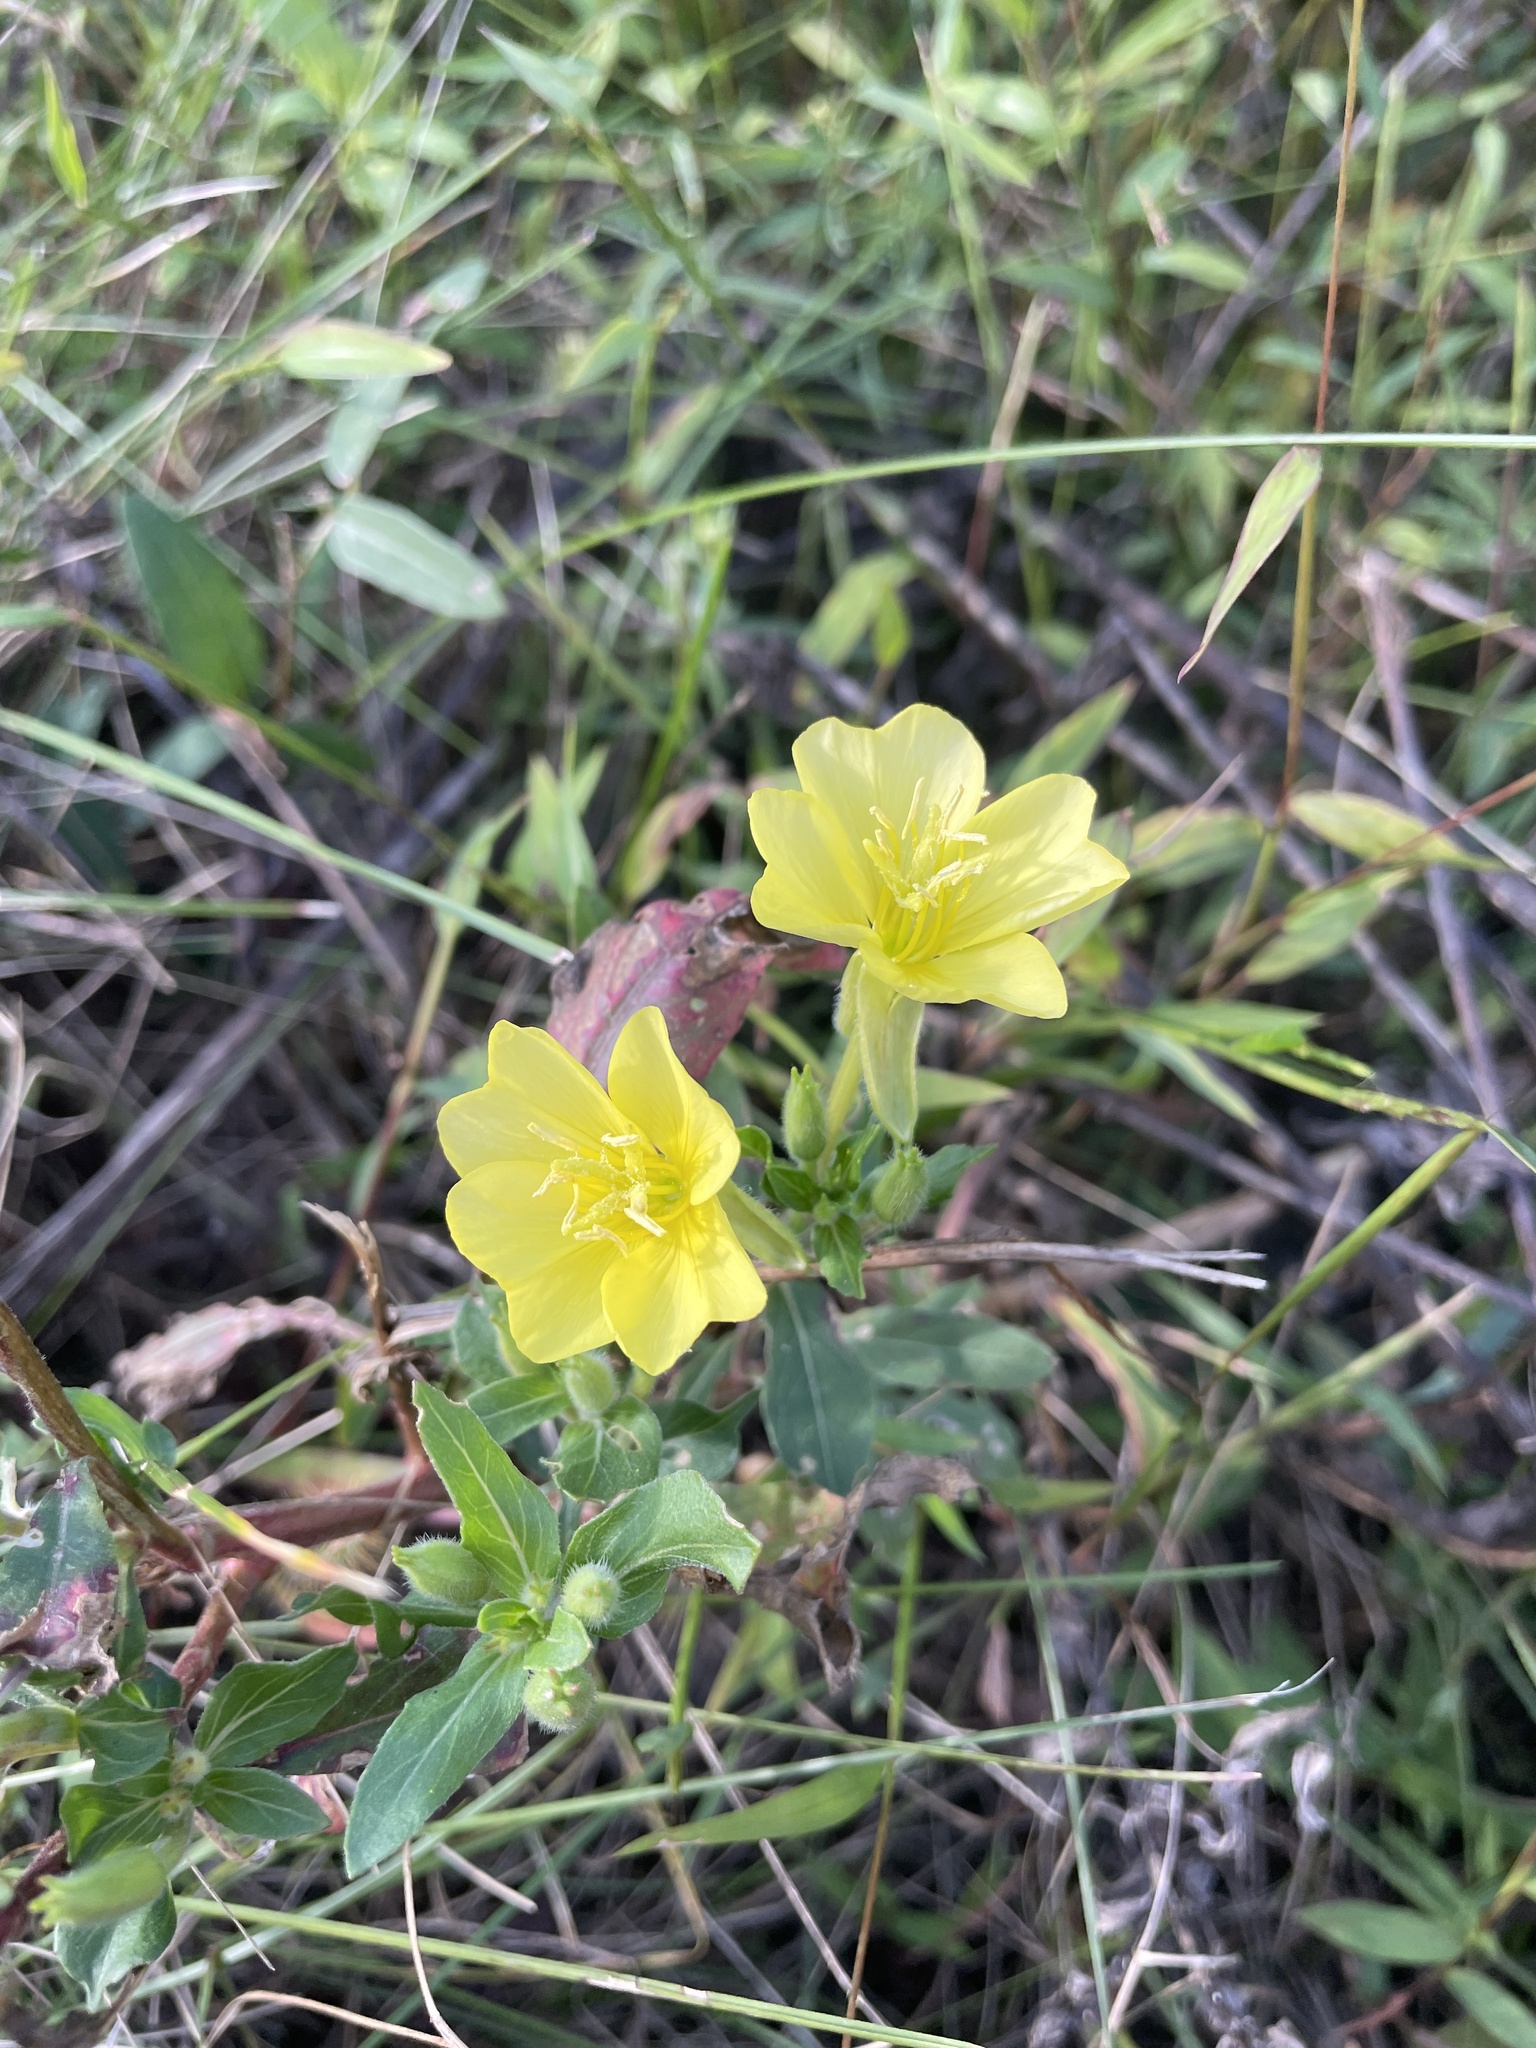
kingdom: Plantae
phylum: Tracheophyta
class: Magnoliopsida
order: Myrtales
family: Onagraceae
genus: Oenothera
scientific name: Oenothera biennis
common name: Common evening-primrose
